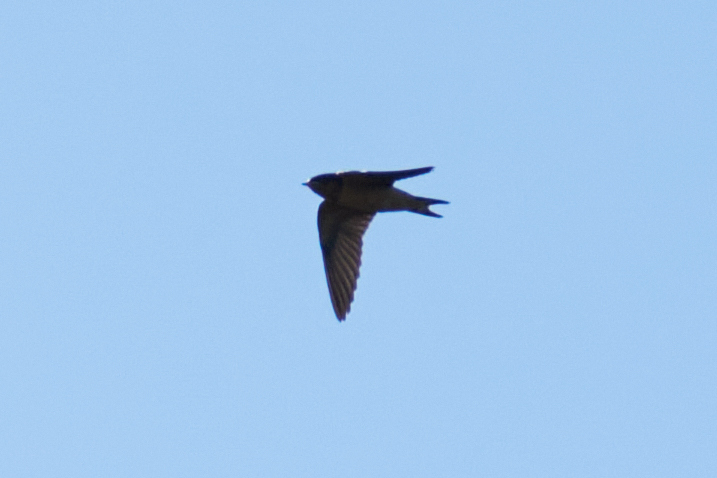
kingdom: Animalia
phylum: Chordata
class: Aves
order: Passeriformes
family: Hirundinidae
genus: Hirundo
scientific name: Hirundo rustica
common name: Barn swallow
